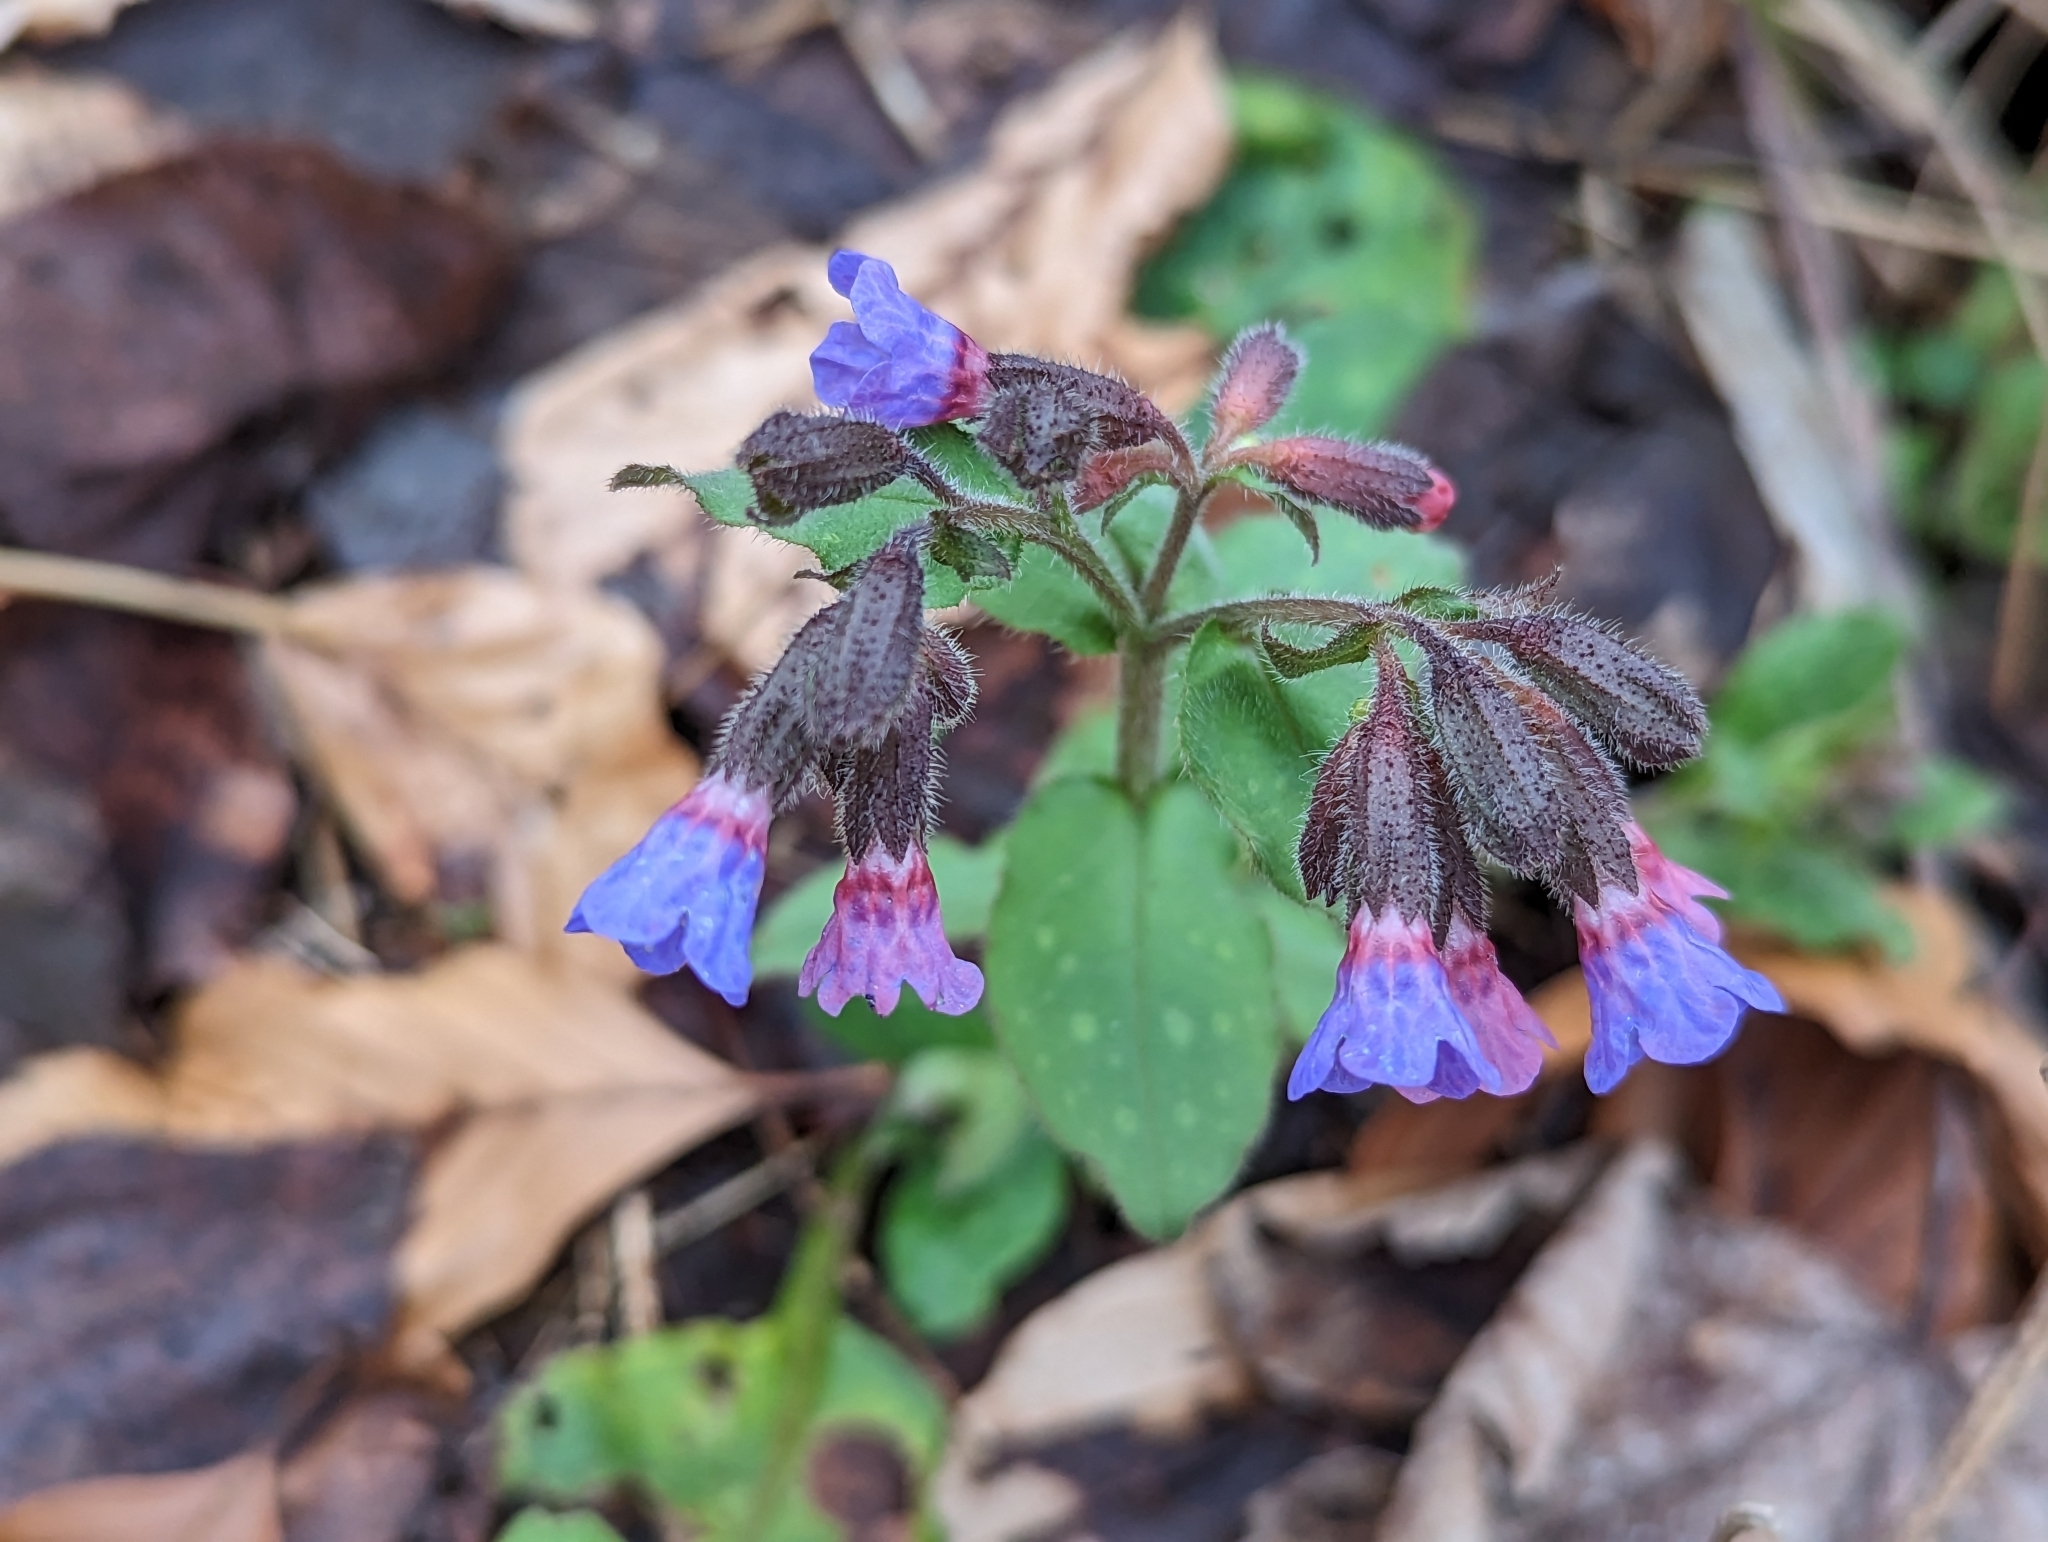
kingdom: Plantae
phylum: Tracheophyta
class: Magnoliopsida
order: Boraginales
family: Boraginaceae
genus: Pulmonaria
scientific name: Pulmonaria officinalis
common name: Lungwort
